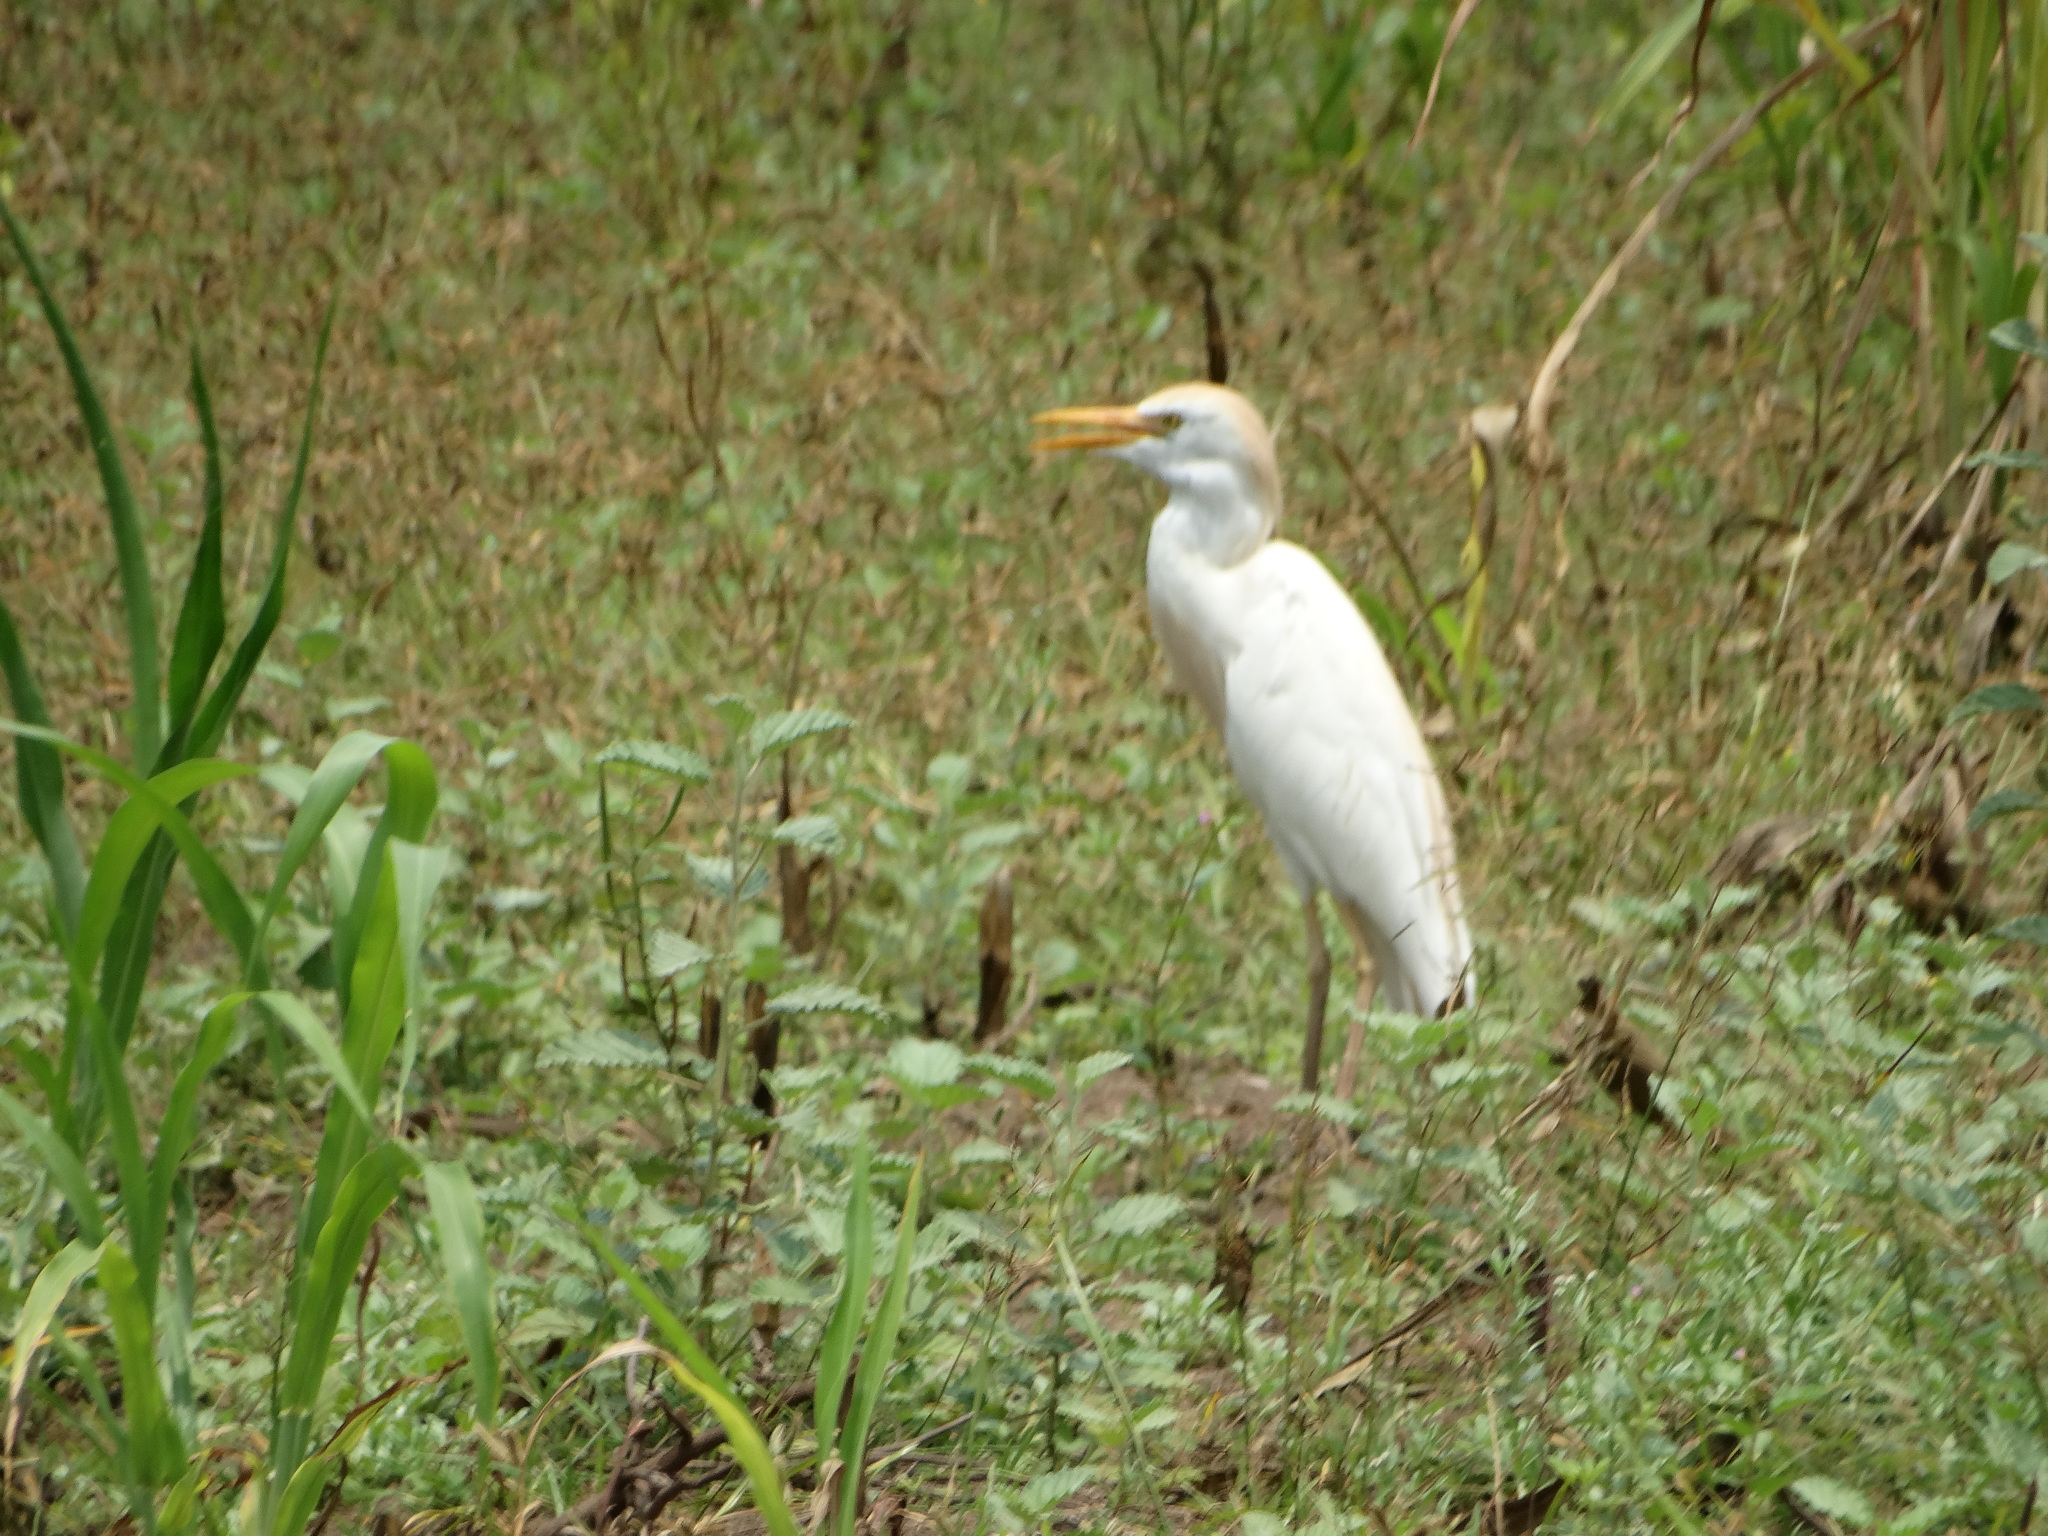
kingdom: Animalia
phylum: Chordata
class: Aves
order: Pelecaniformes
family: Ardeidae
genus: Bubulcus
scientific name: Bubulcus ibis
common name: Cattle egret
